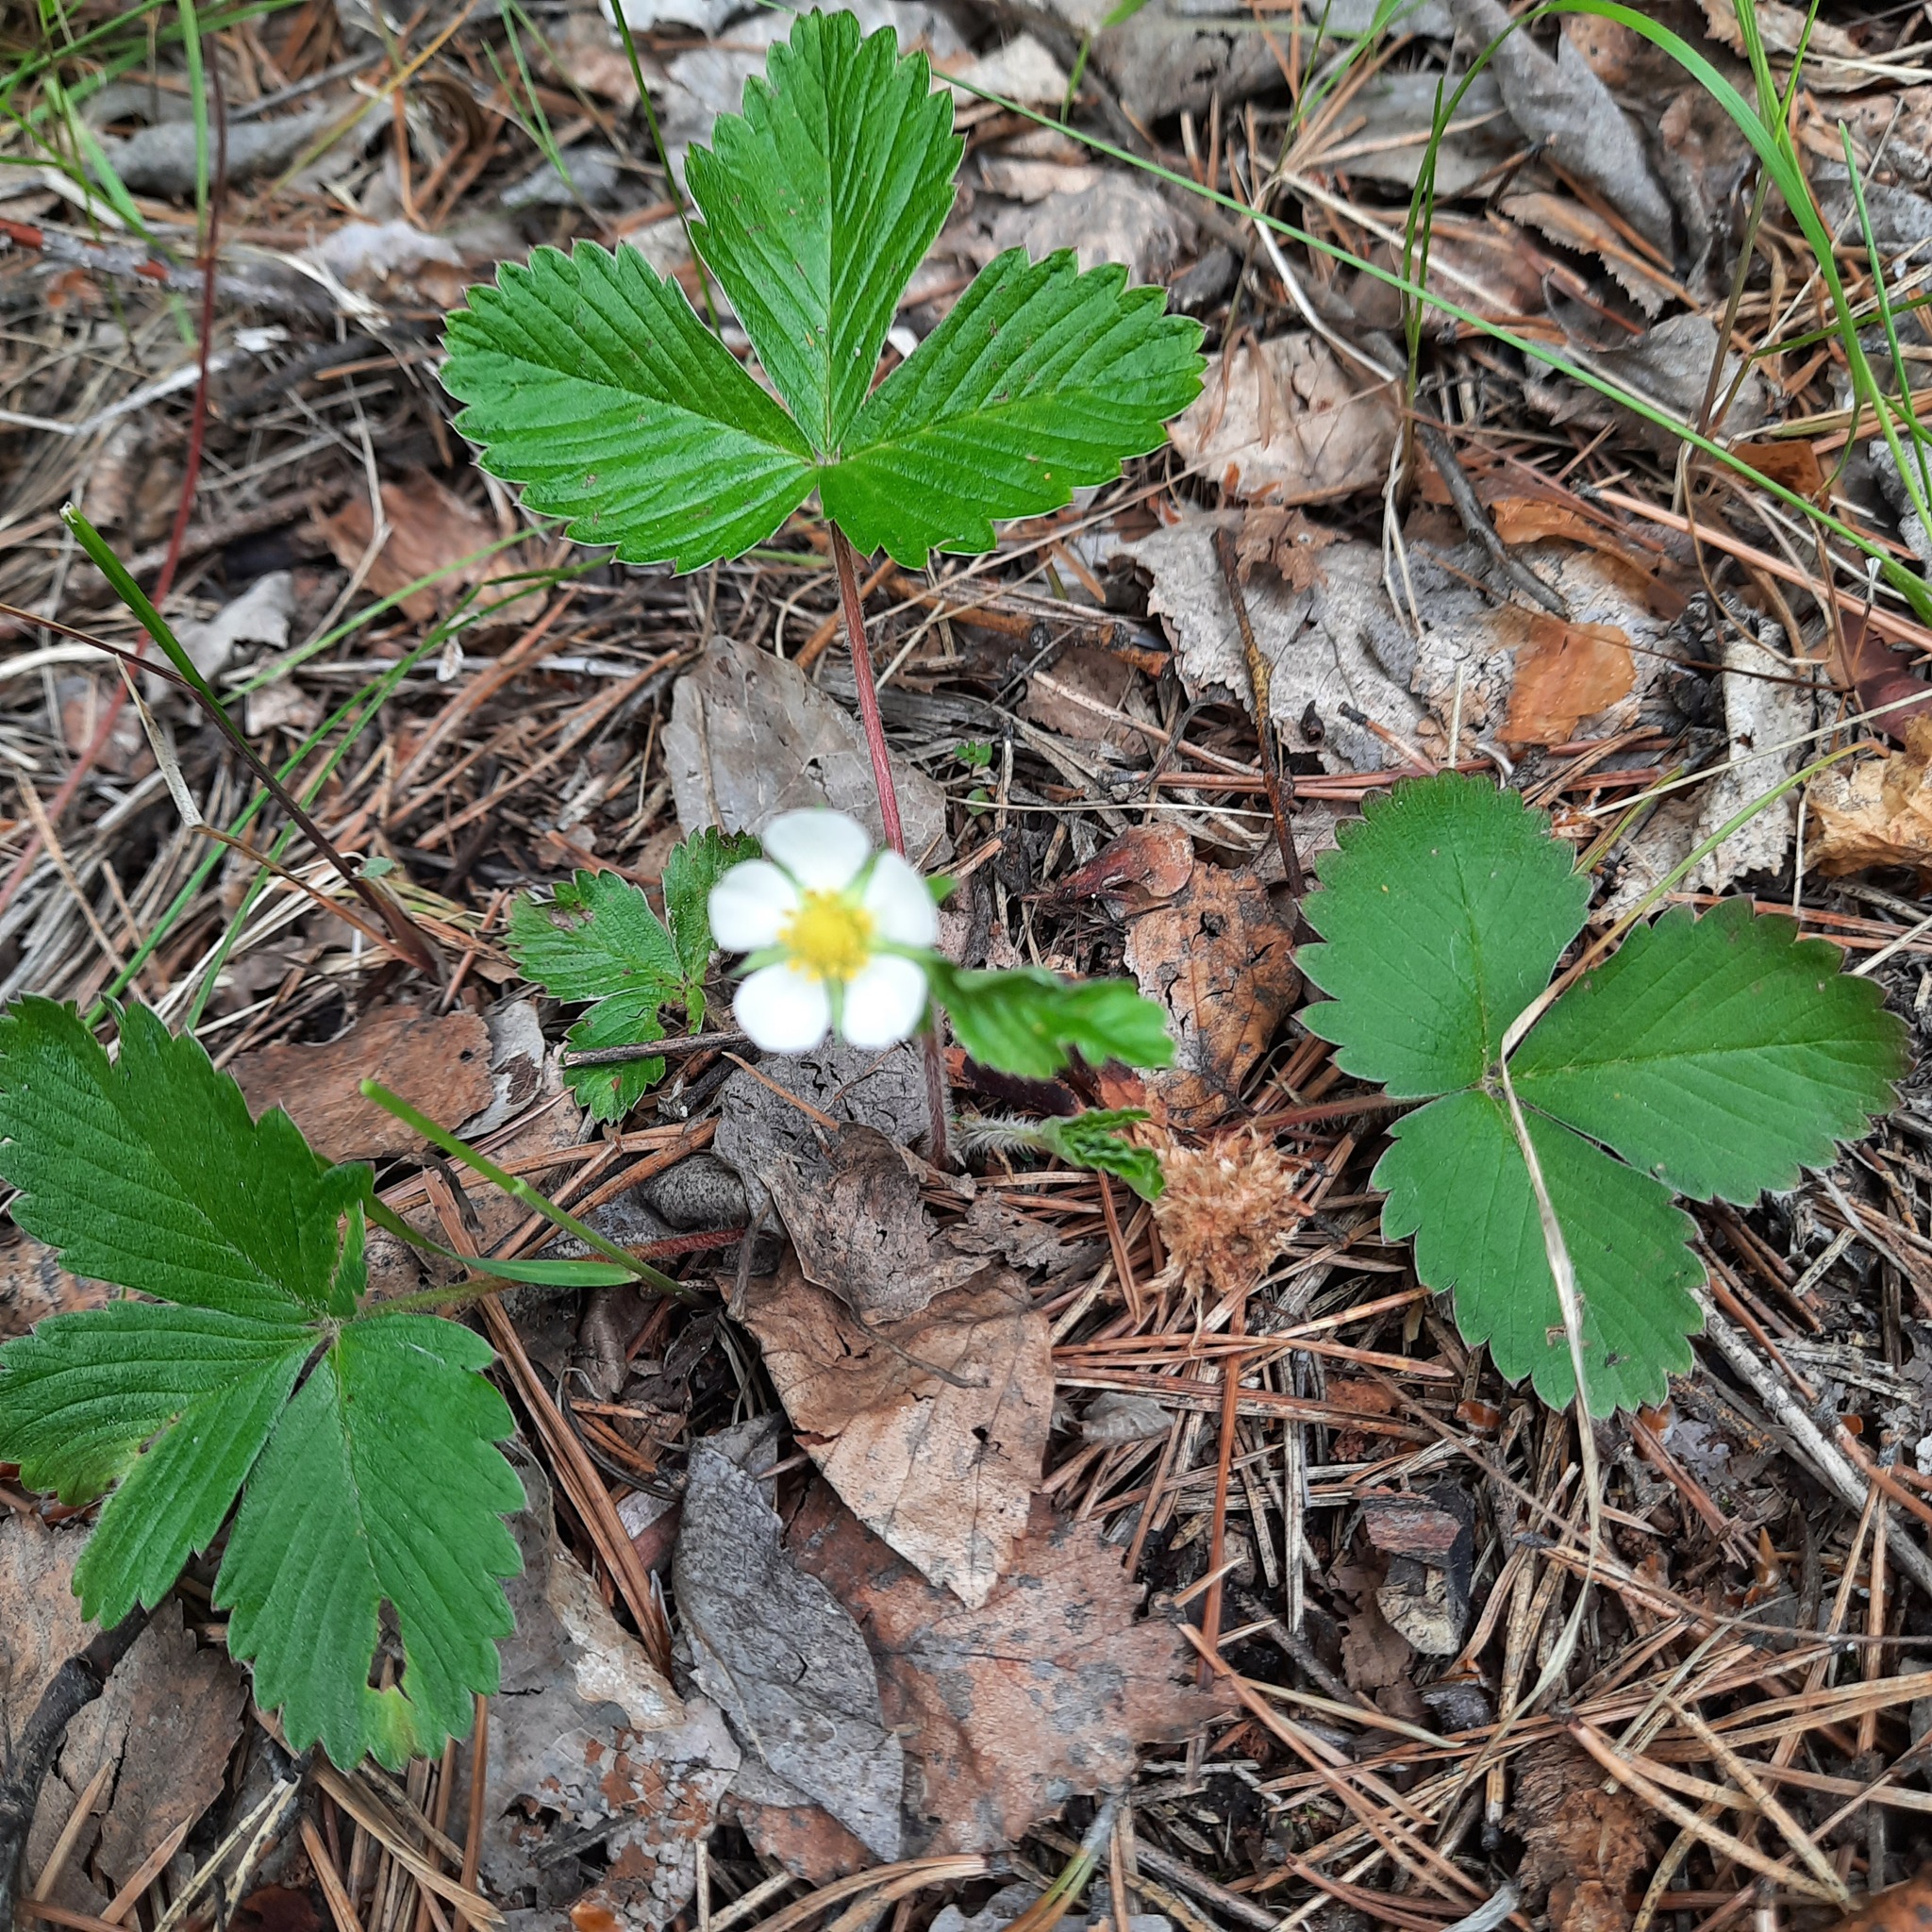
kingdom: Plantae
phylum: Tracheophyta
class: Magnoliopsida
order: Rosales
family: Rosaceae
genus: Fragaria
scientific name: Fragaria vesca
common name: Wild strawberry
